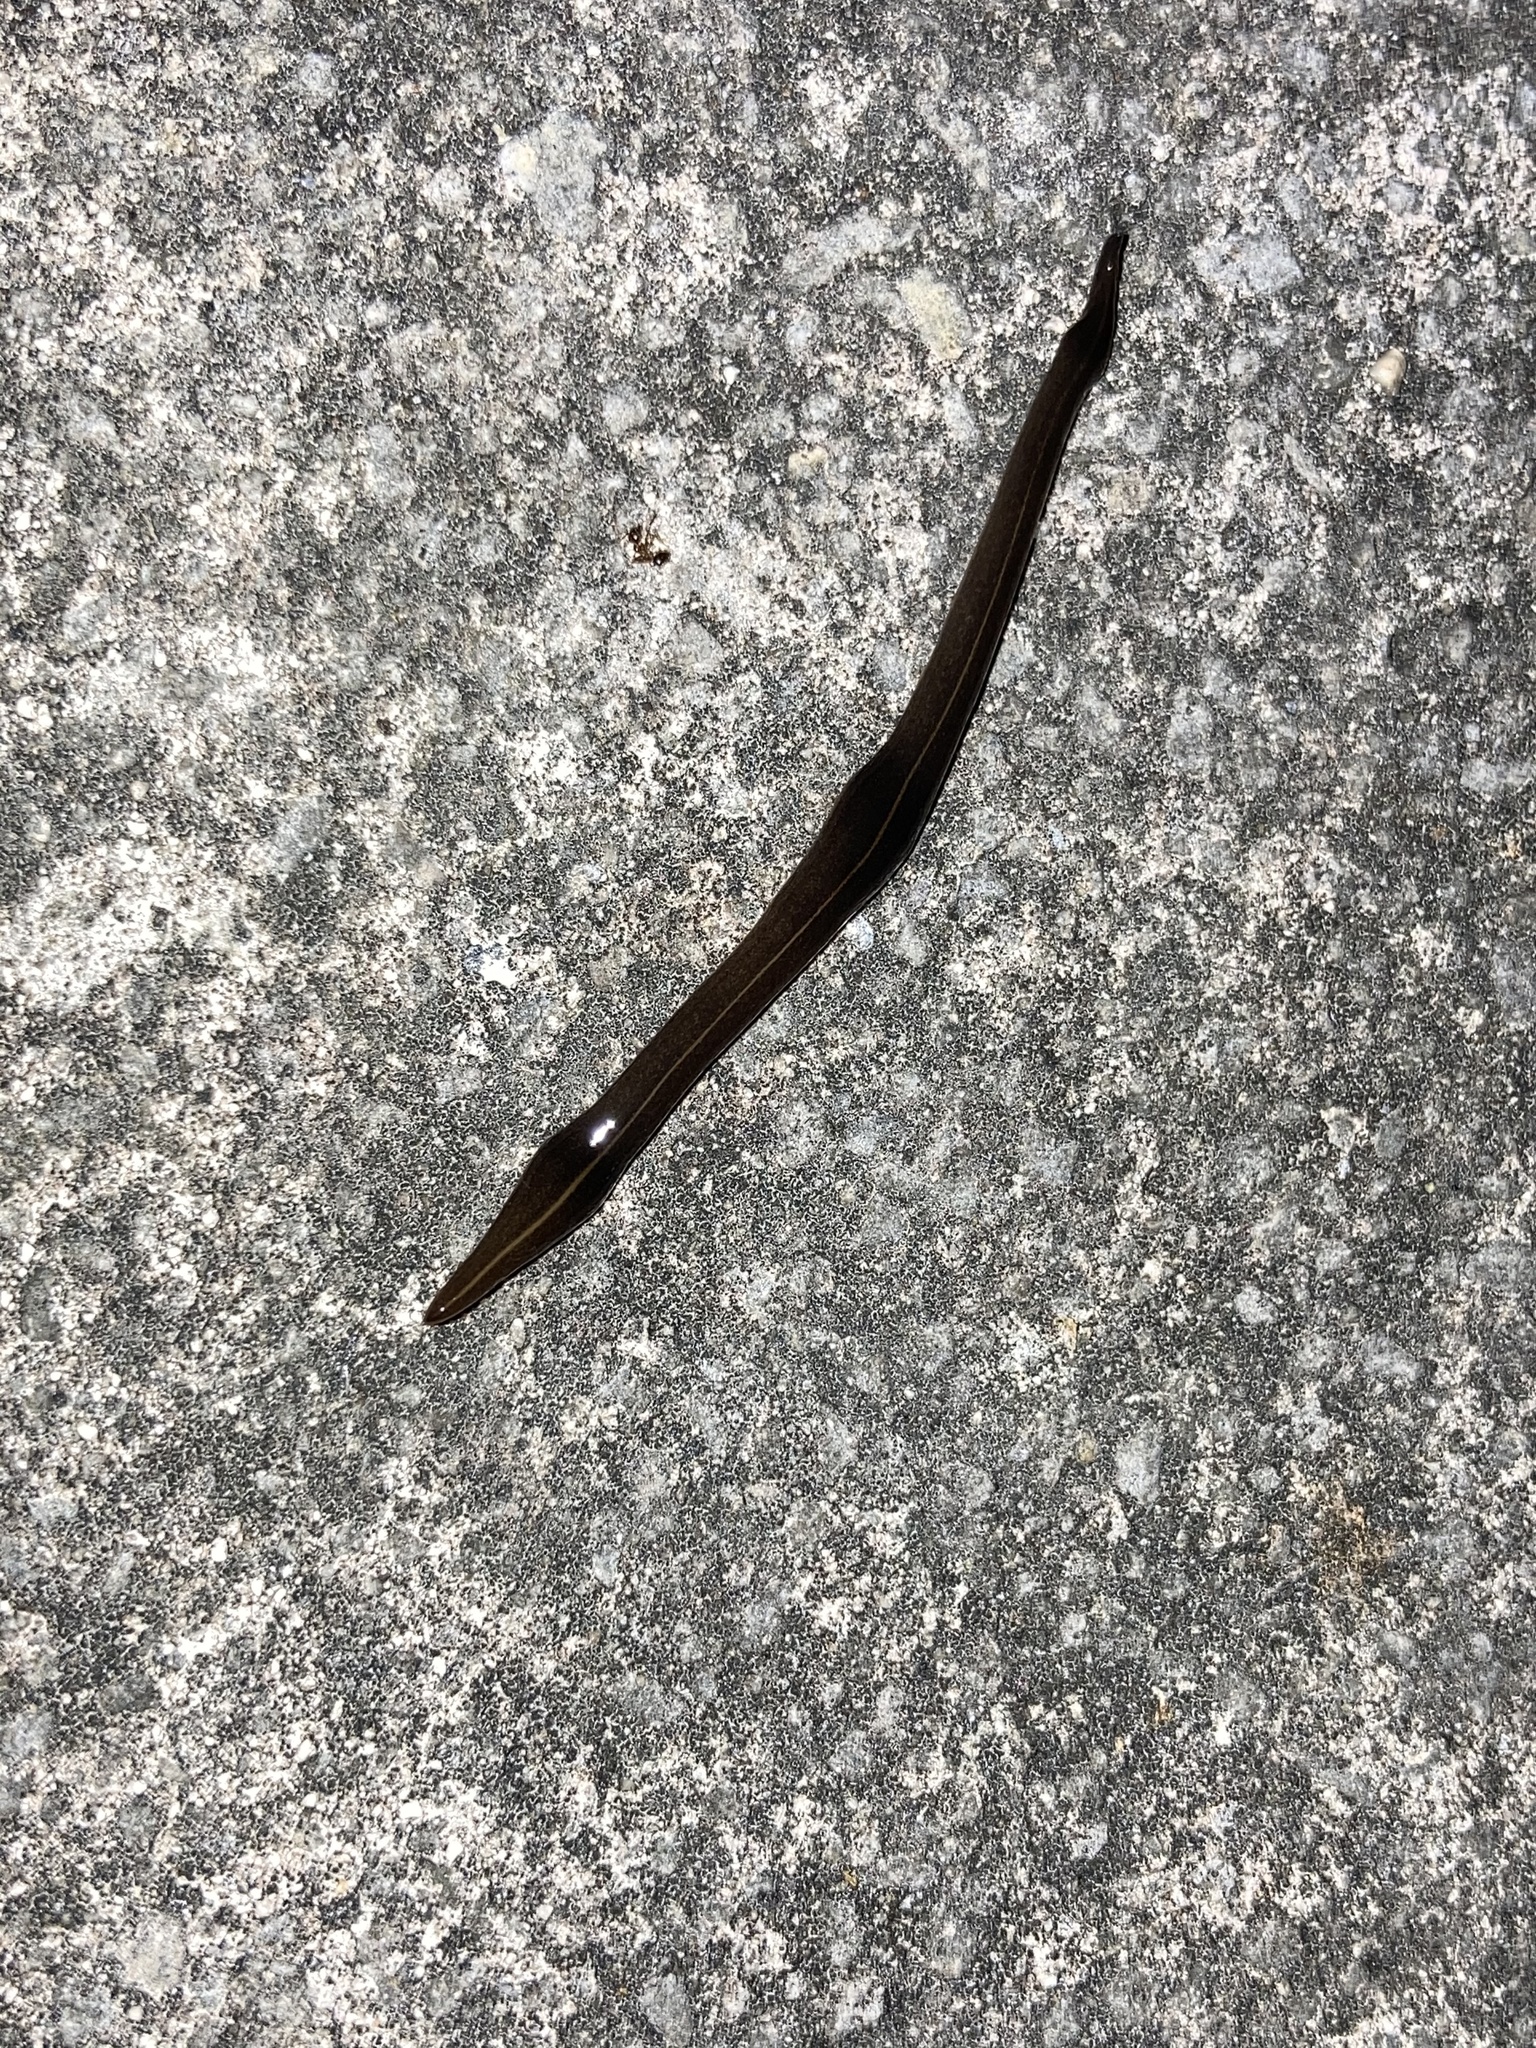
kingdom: Animalia
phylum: Platyhelminthes
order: Tricladida
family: Geoplanidae
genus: Platydemus
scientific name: Platydemus manokwari
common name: New guinea flatworm
